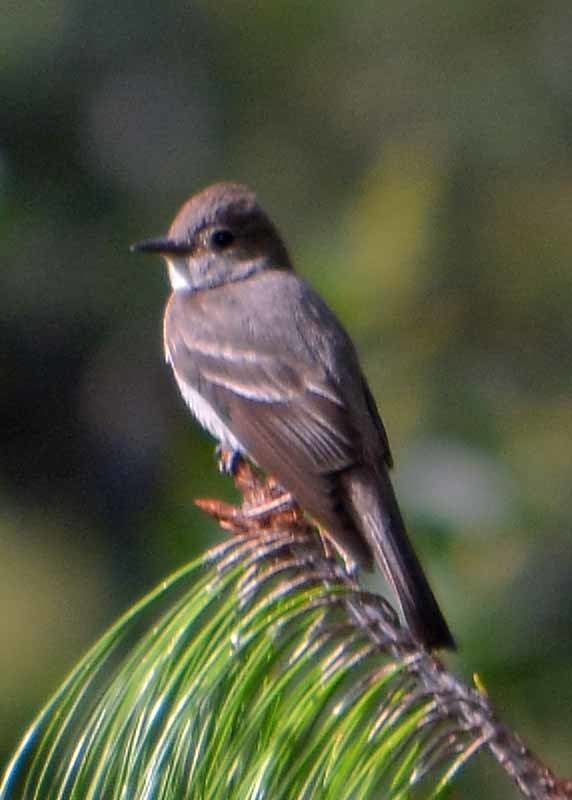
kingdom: Animalia
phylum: Chordata
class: Aves
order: Passeriformes
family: Tyrannidae
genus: Contopus
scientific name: Contopus
